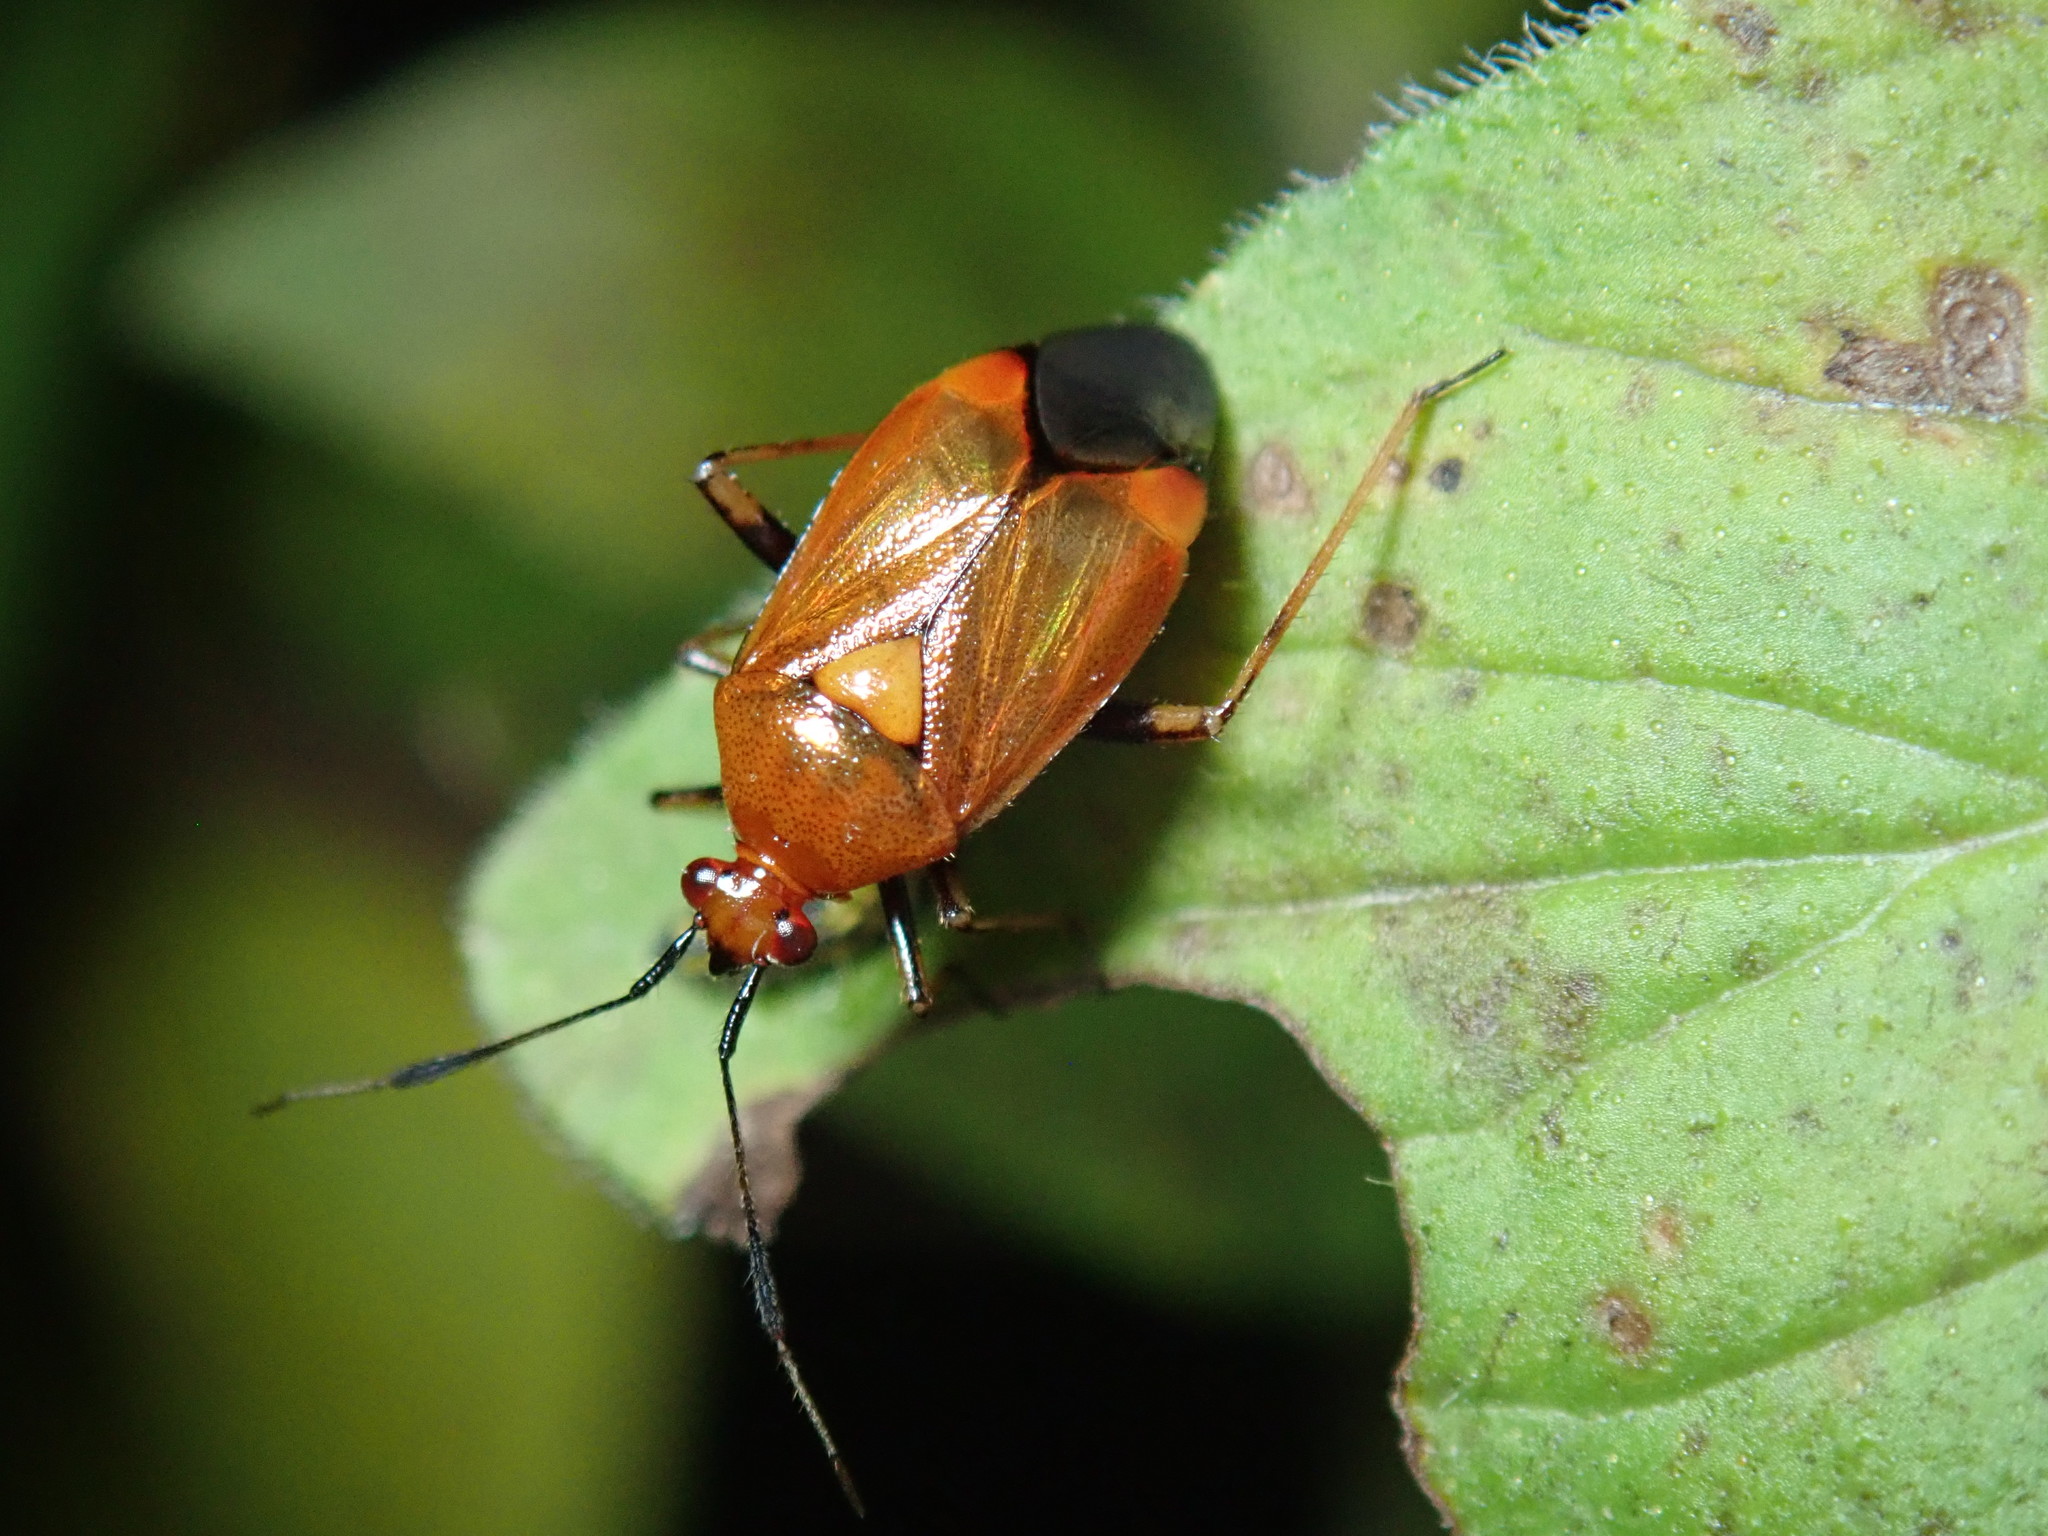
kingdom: Animalia
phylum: Arthropoda
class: Insecta
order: Hemiptera
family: Miridae
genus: Deraeocoris
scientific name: Deraeocoris ruber
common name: Plant bug
